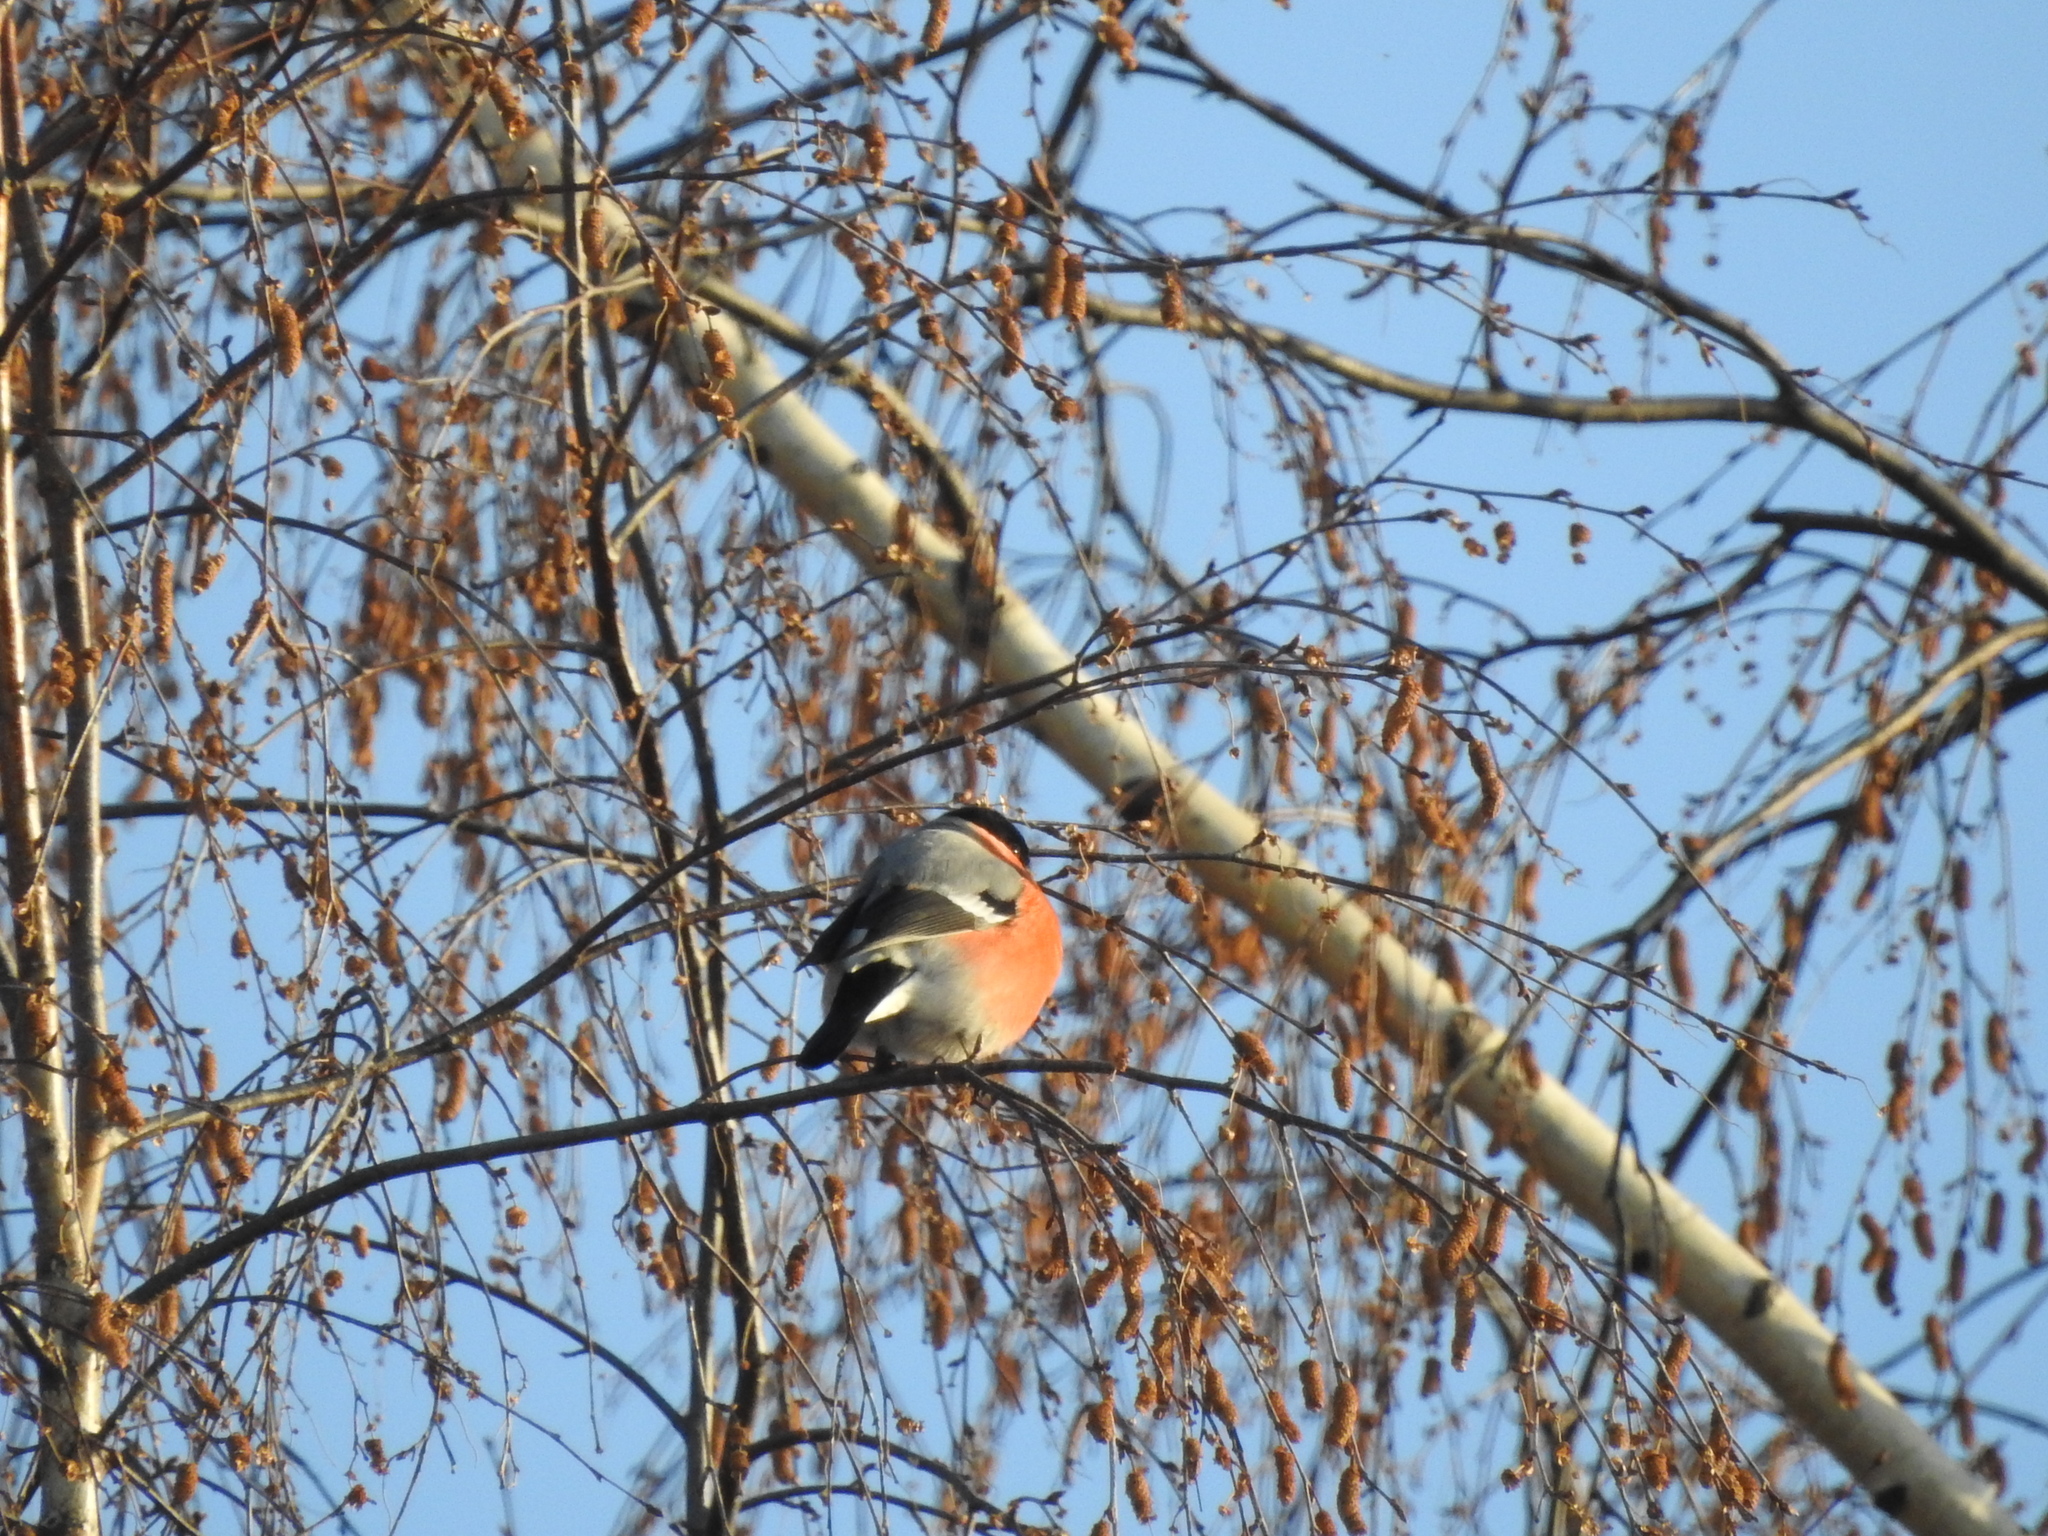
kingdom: Animalia
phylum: Chordata
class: Aves
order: Passeriformes
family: Fringillidae
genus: Pyrrhula
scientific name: Pyrrhula pyrrhula
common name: Eurasian bullfinch
